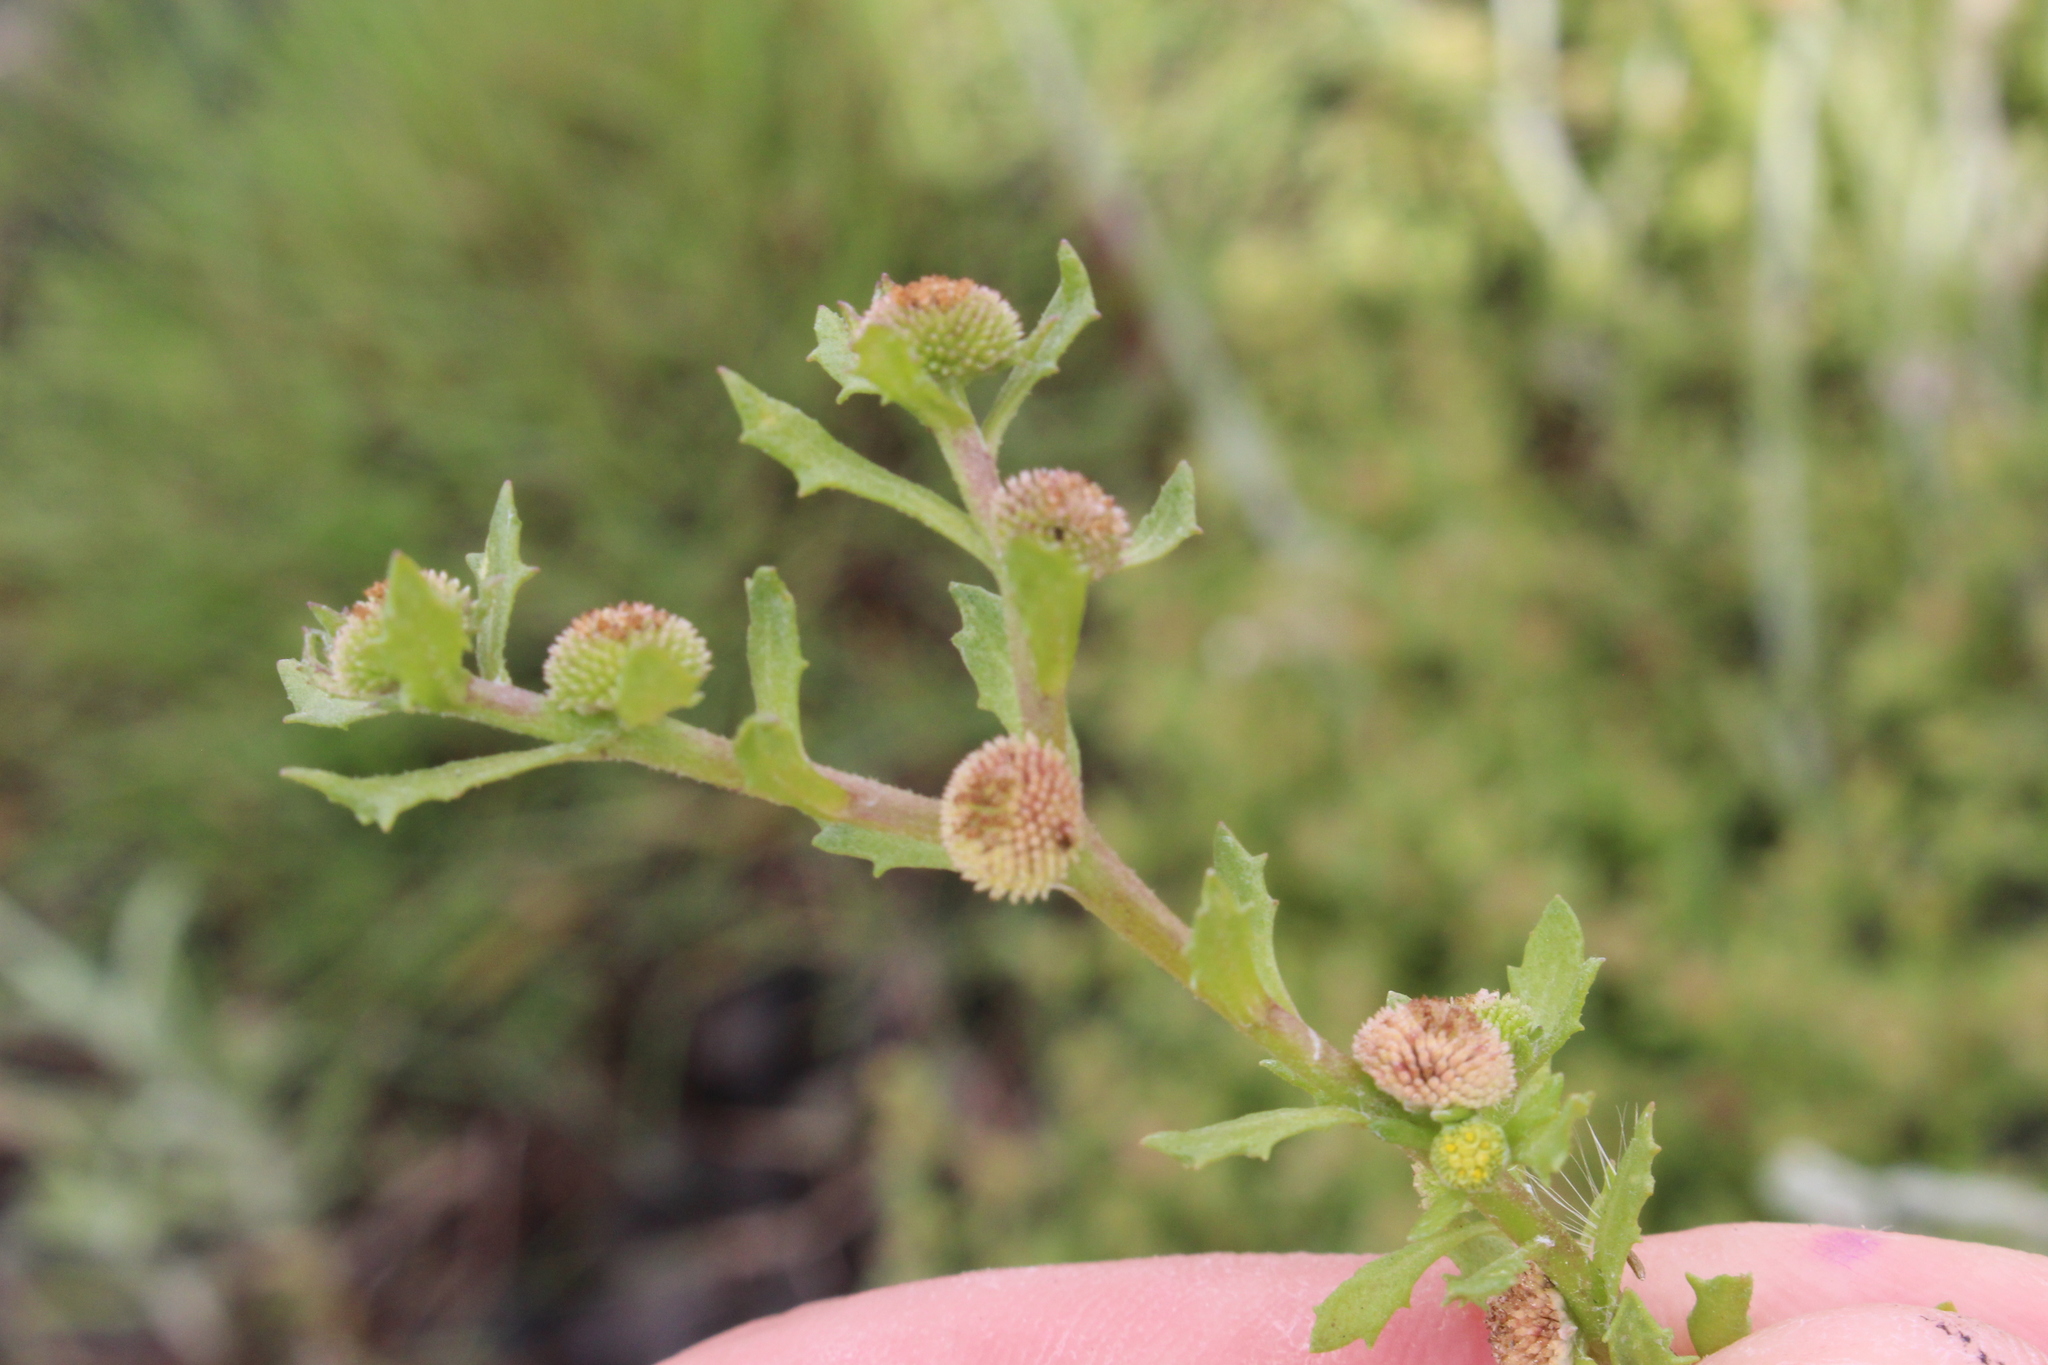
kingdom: Plantae
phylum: Tracheophyta
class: Magnoliopsida
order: Asterales
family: Asteraceae
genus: Centipeda
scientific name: Centipeda aotearoana
